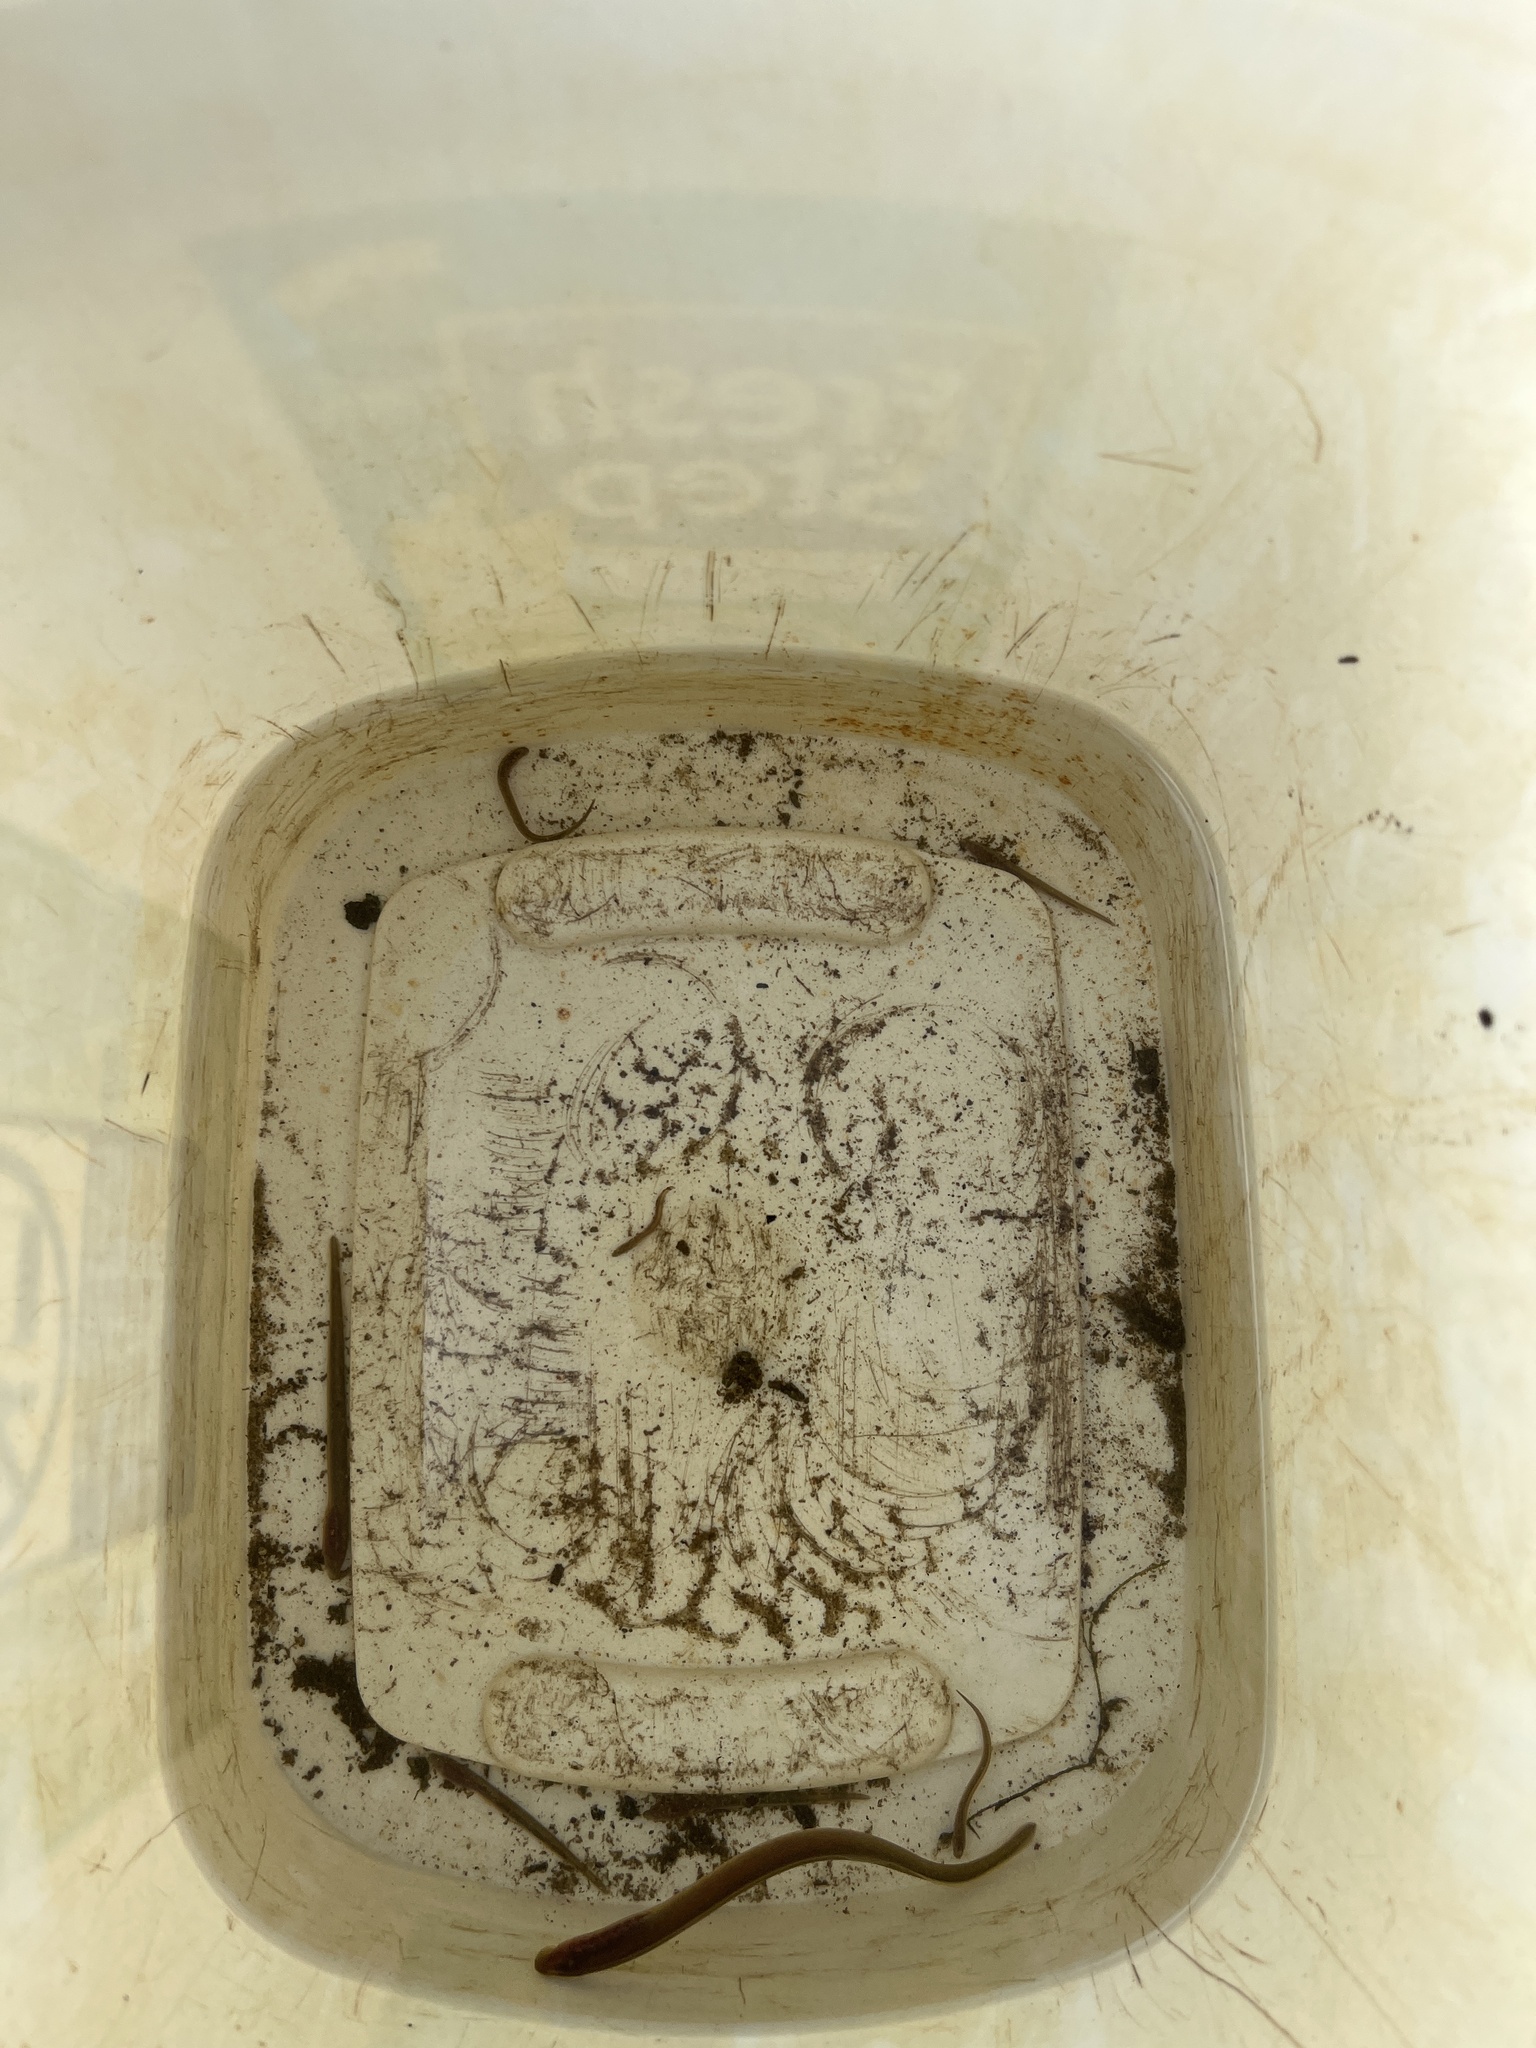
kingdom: Animalia
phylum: Chordata
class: Petromyzonti
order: Petromyzontiformes
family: Petromyzontidae
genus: Petromyzon
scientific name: Petromyzon marinus
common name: Sea lamprey
